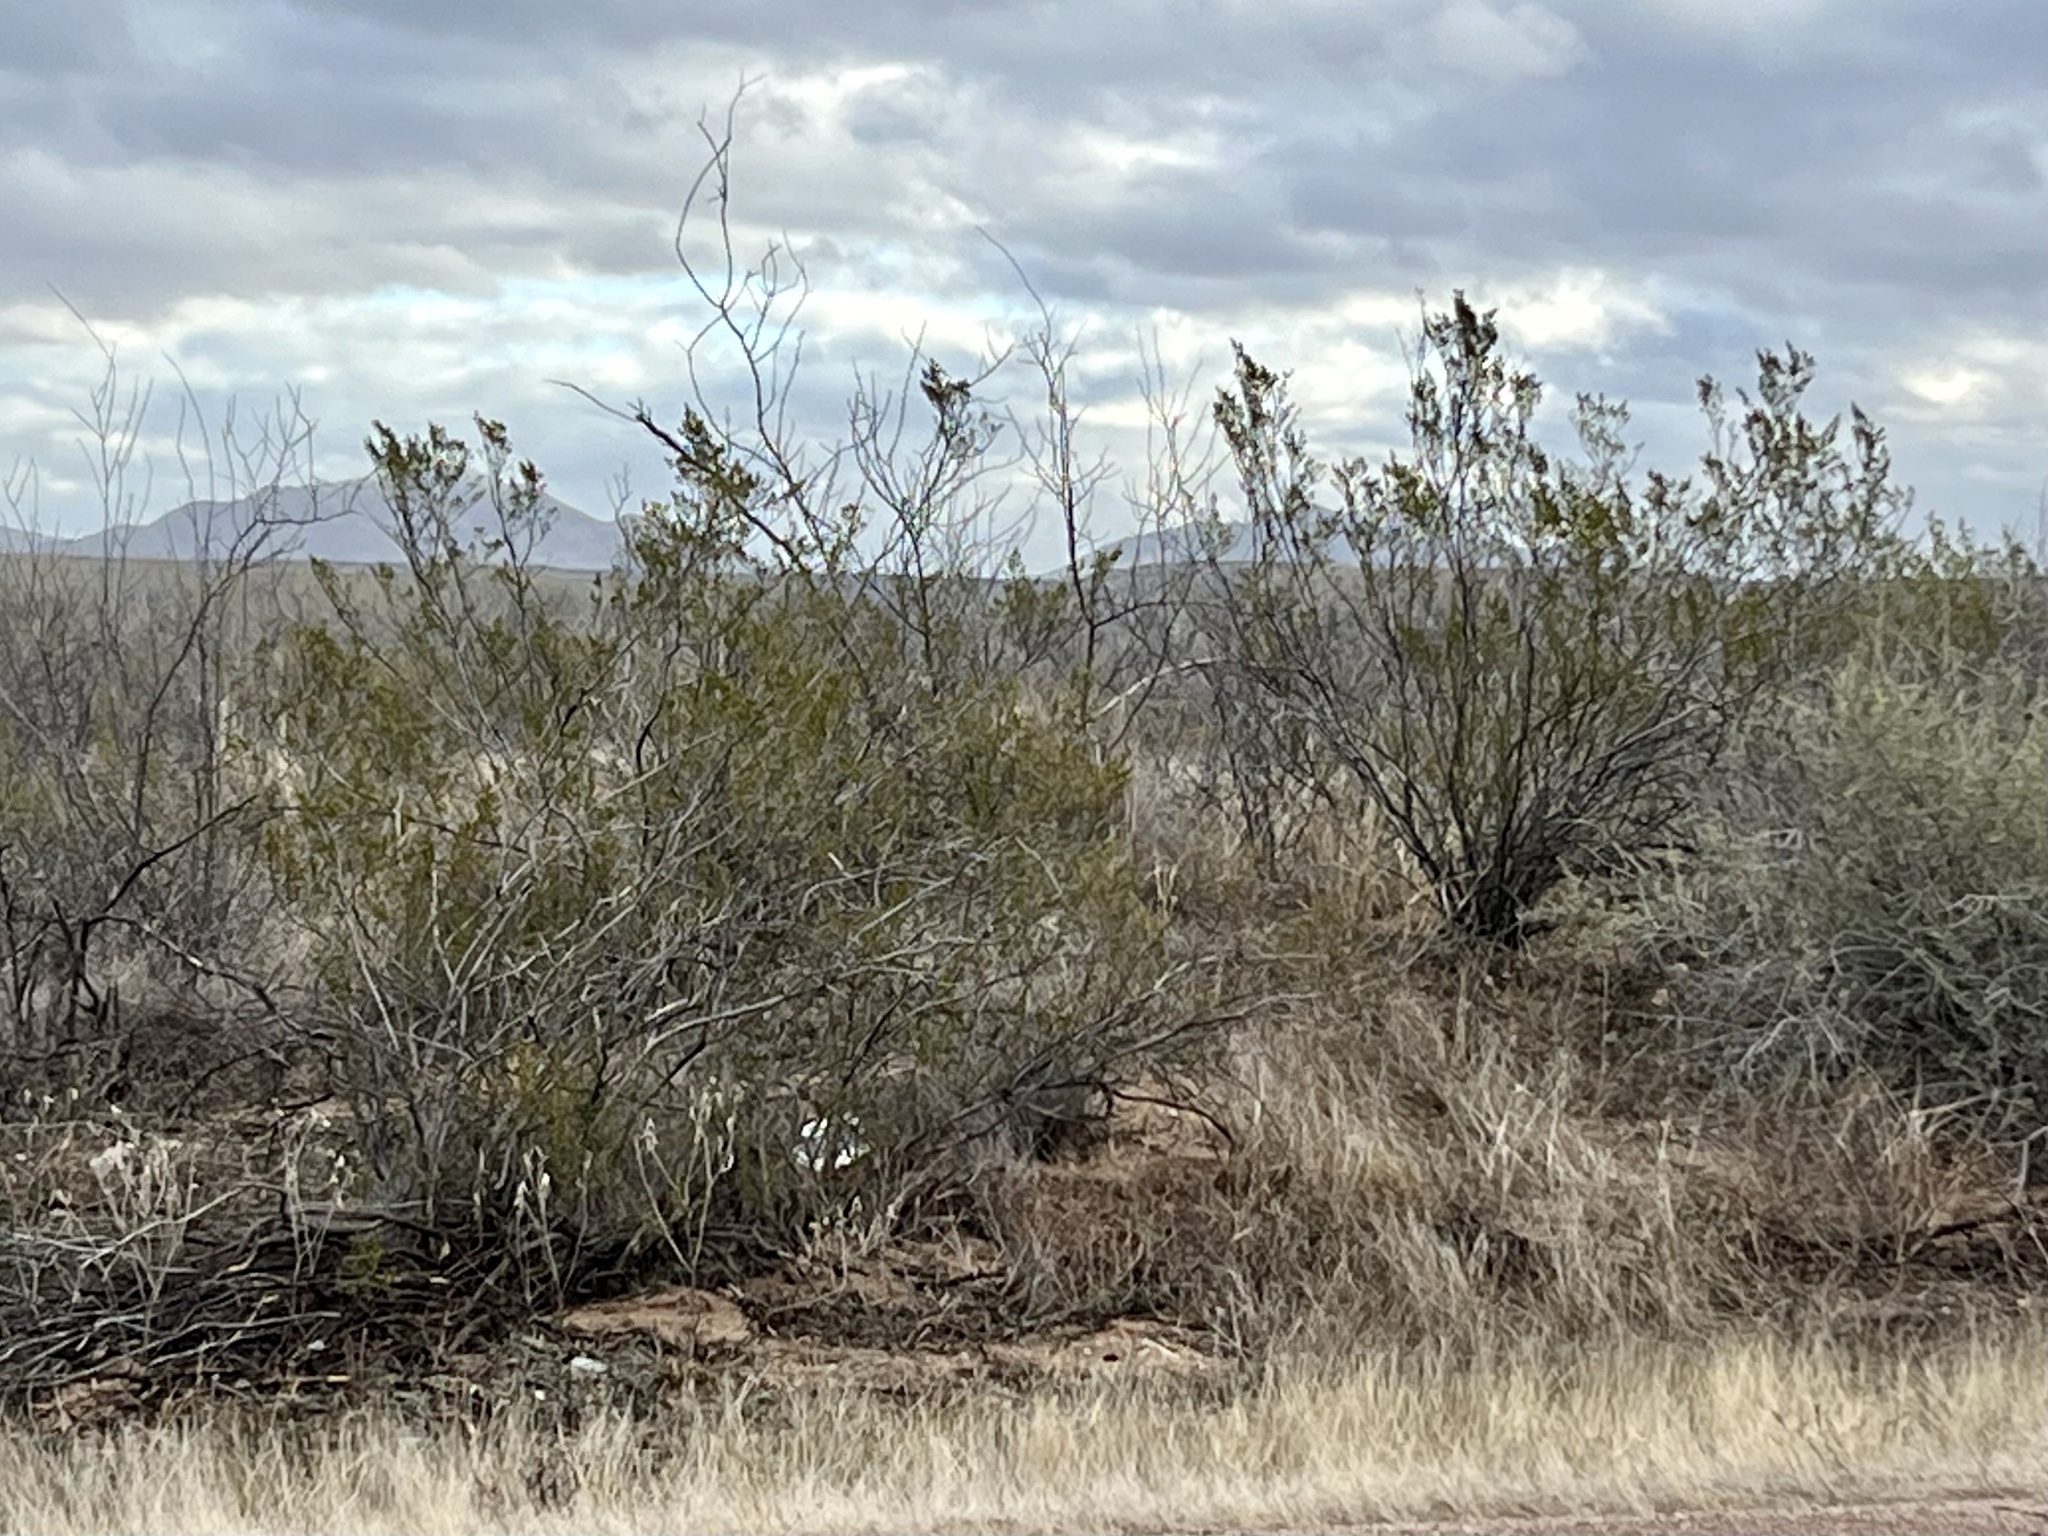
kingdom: Plantae
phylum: Tracheophyta
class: Magnoliopsida
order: Zygophyllales
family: Zygophyllaceae
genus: Larrea
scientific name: Larrea tridentata
